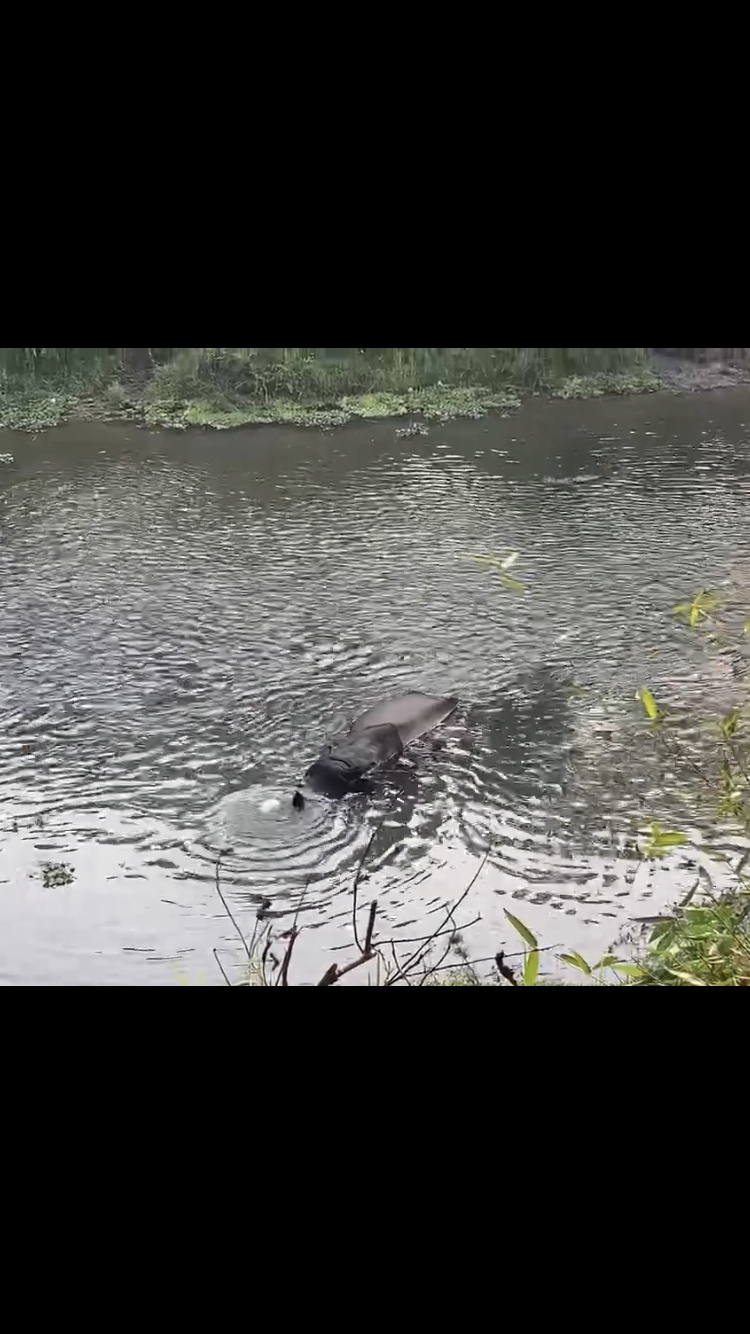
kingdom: Animalia
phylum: Chordata
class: Mammalia
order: Perissodactyla
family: Rhinocerotidae
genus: Rhinoceros
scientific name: Rhinoceros unicornis
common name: Indian rhinoceros
